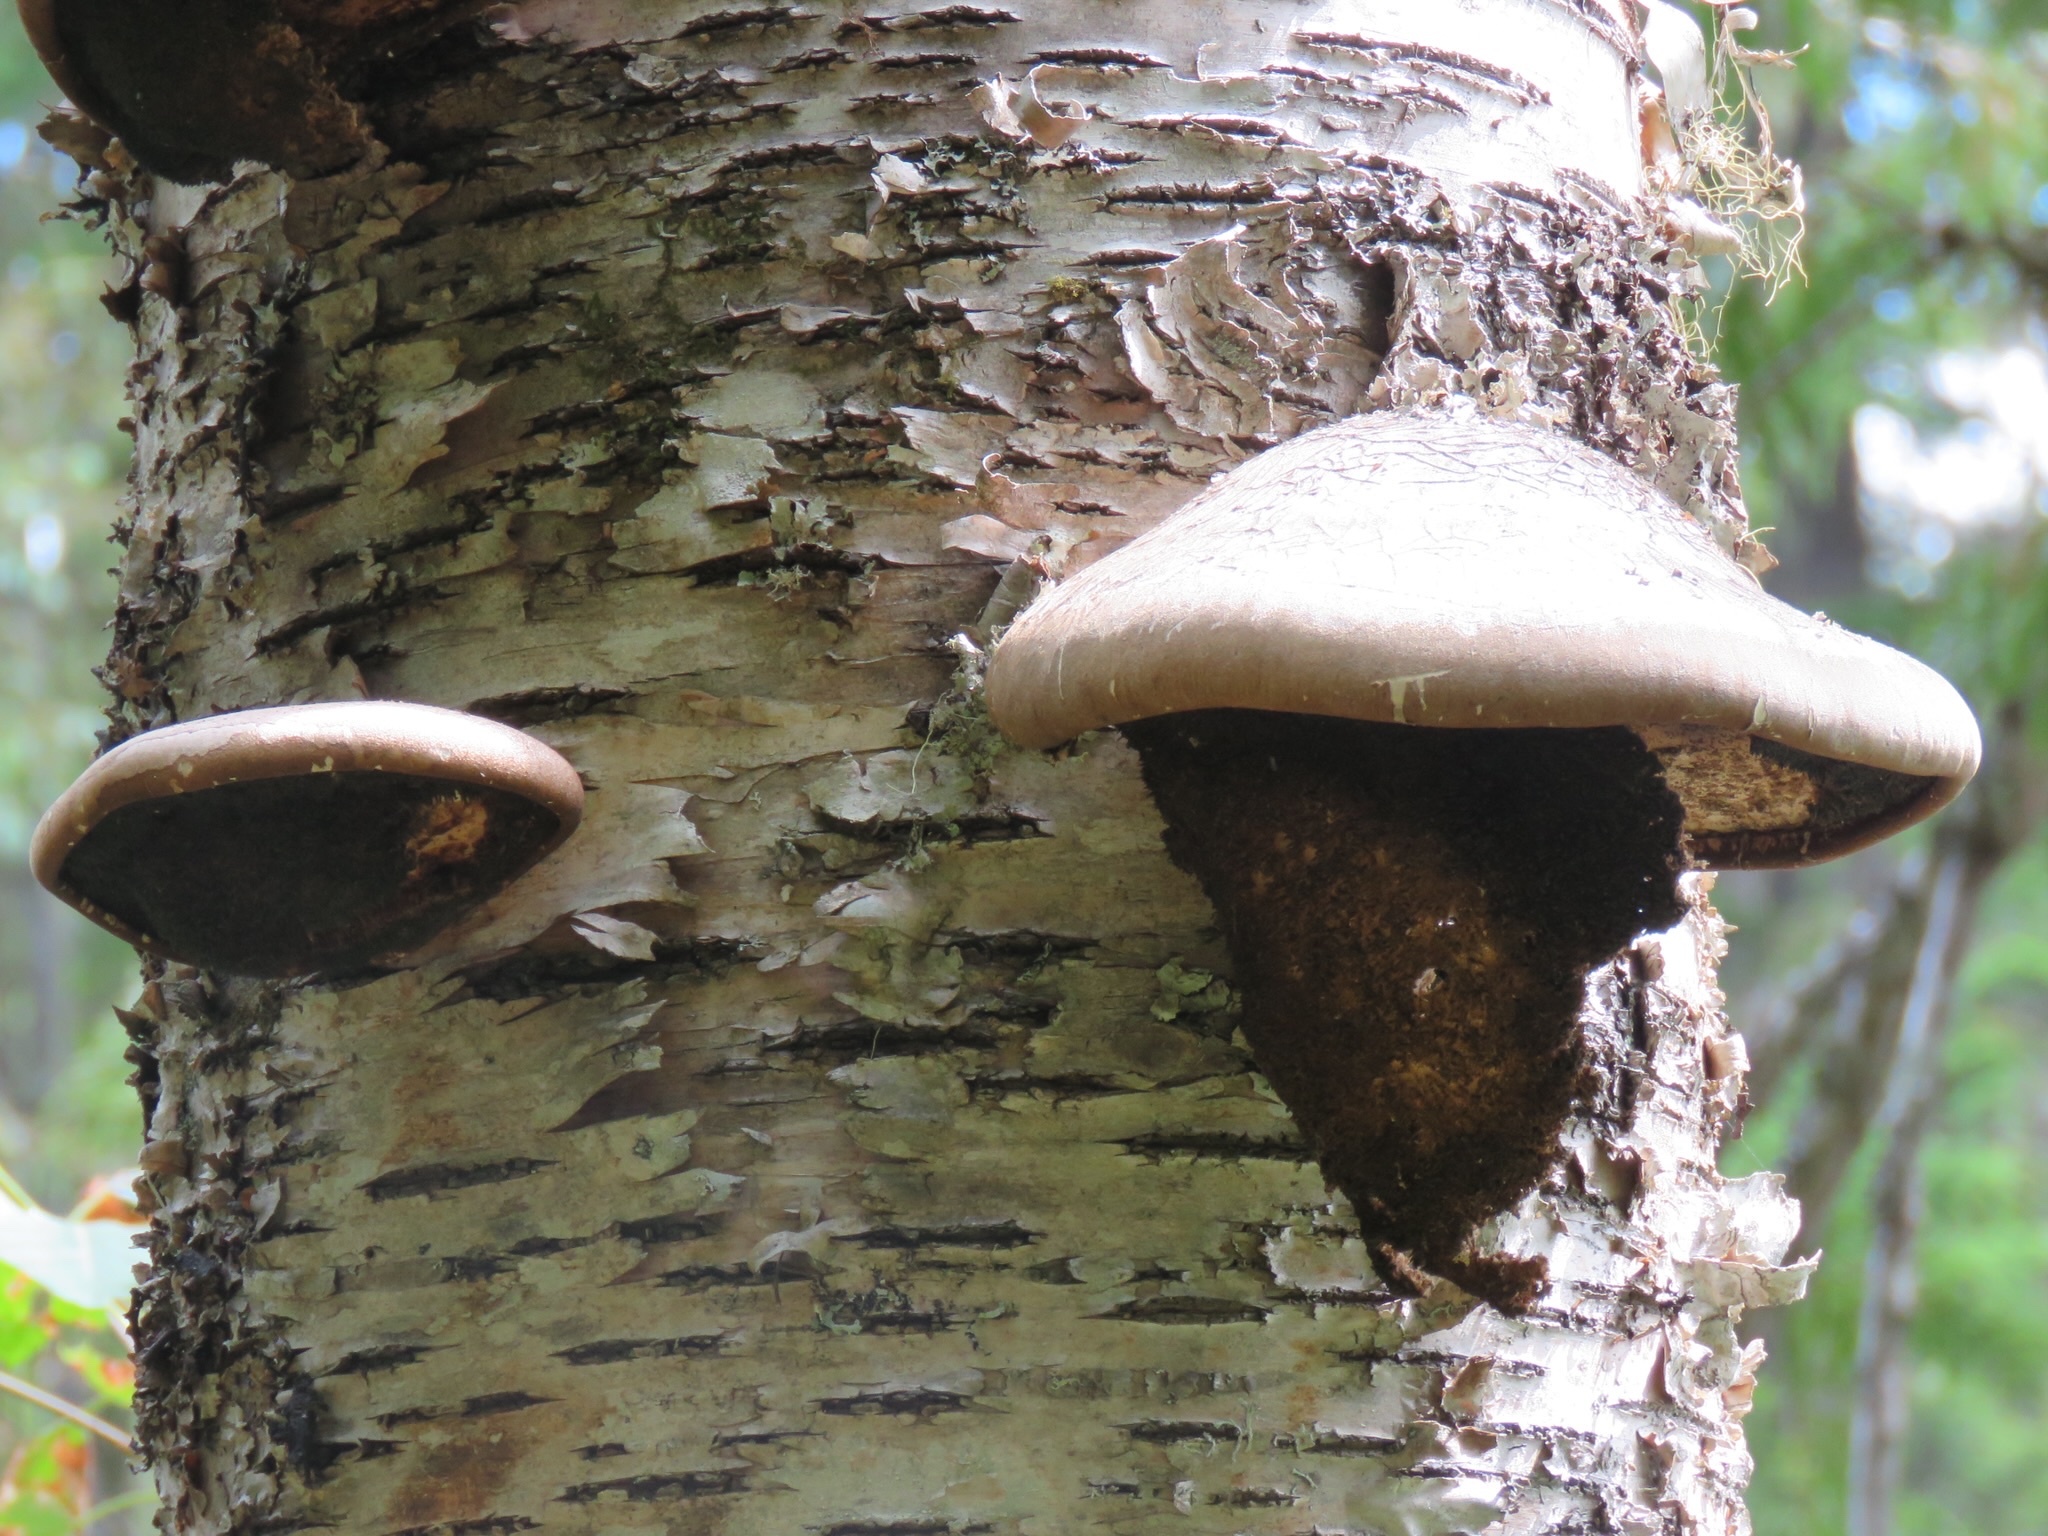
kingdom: Fungi
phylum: Basidiomycota
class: Agaricomycetes
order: Polyporales
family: Fomitopsidaceae
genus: Fomitopsis
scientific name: Fomitopsis betulina
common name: Birch polypore
